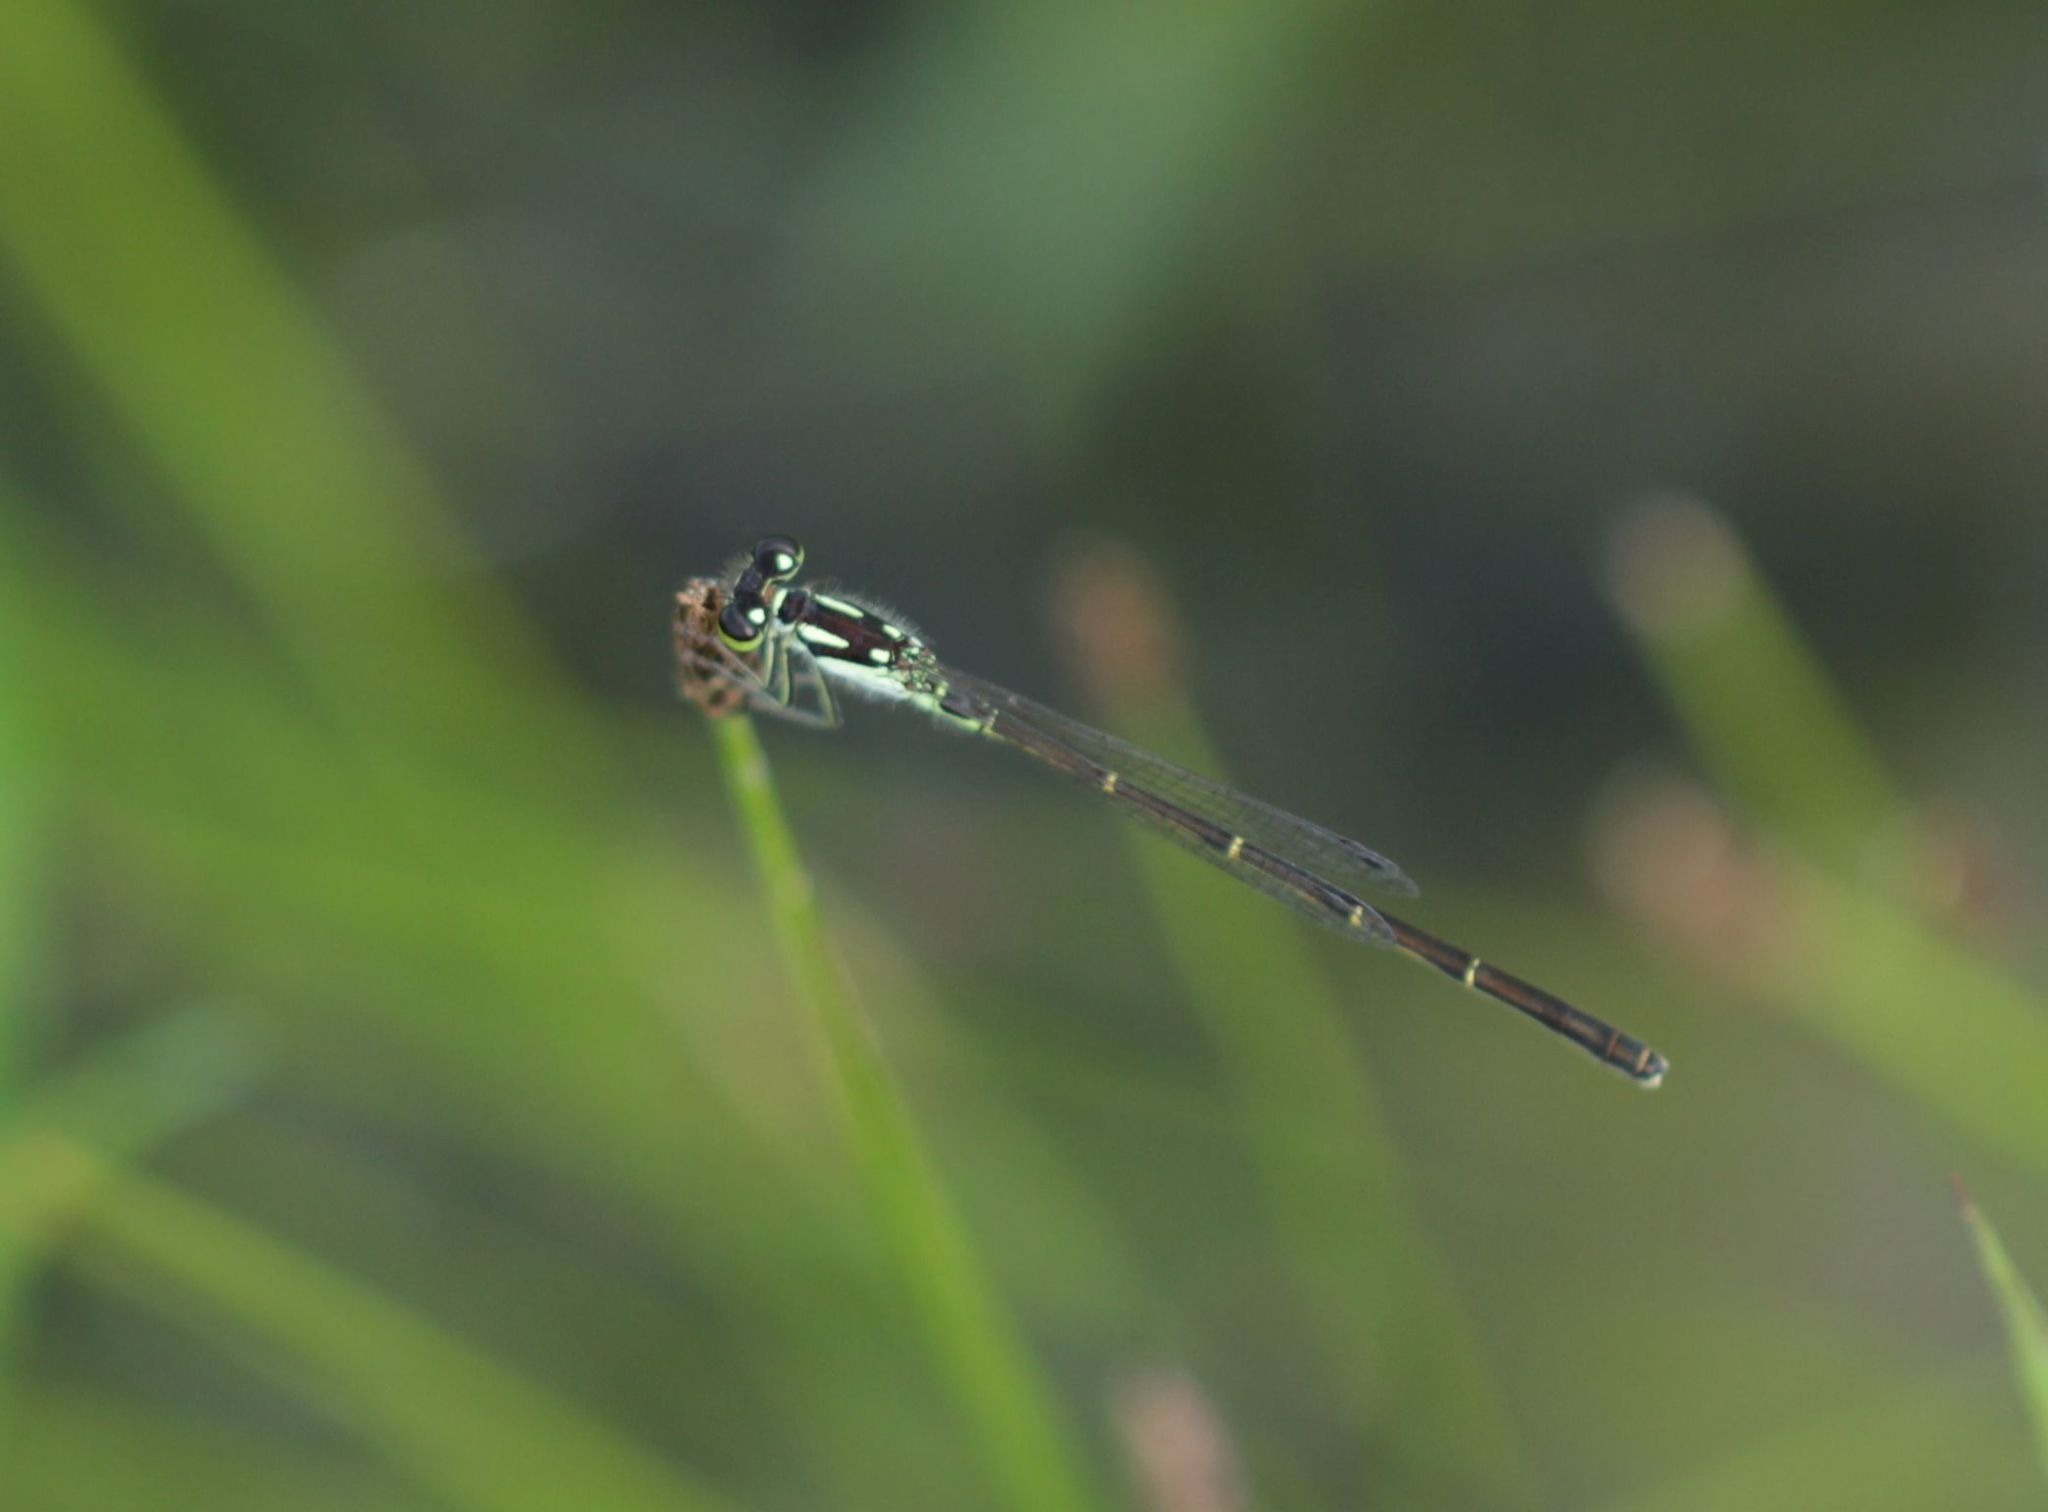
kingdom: Animalia
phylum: Arthropoda
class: Insecta
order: Odonata
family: Coenagrionidae
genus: Ischnura
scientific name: Ischnura posita
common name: Fragile forktail
